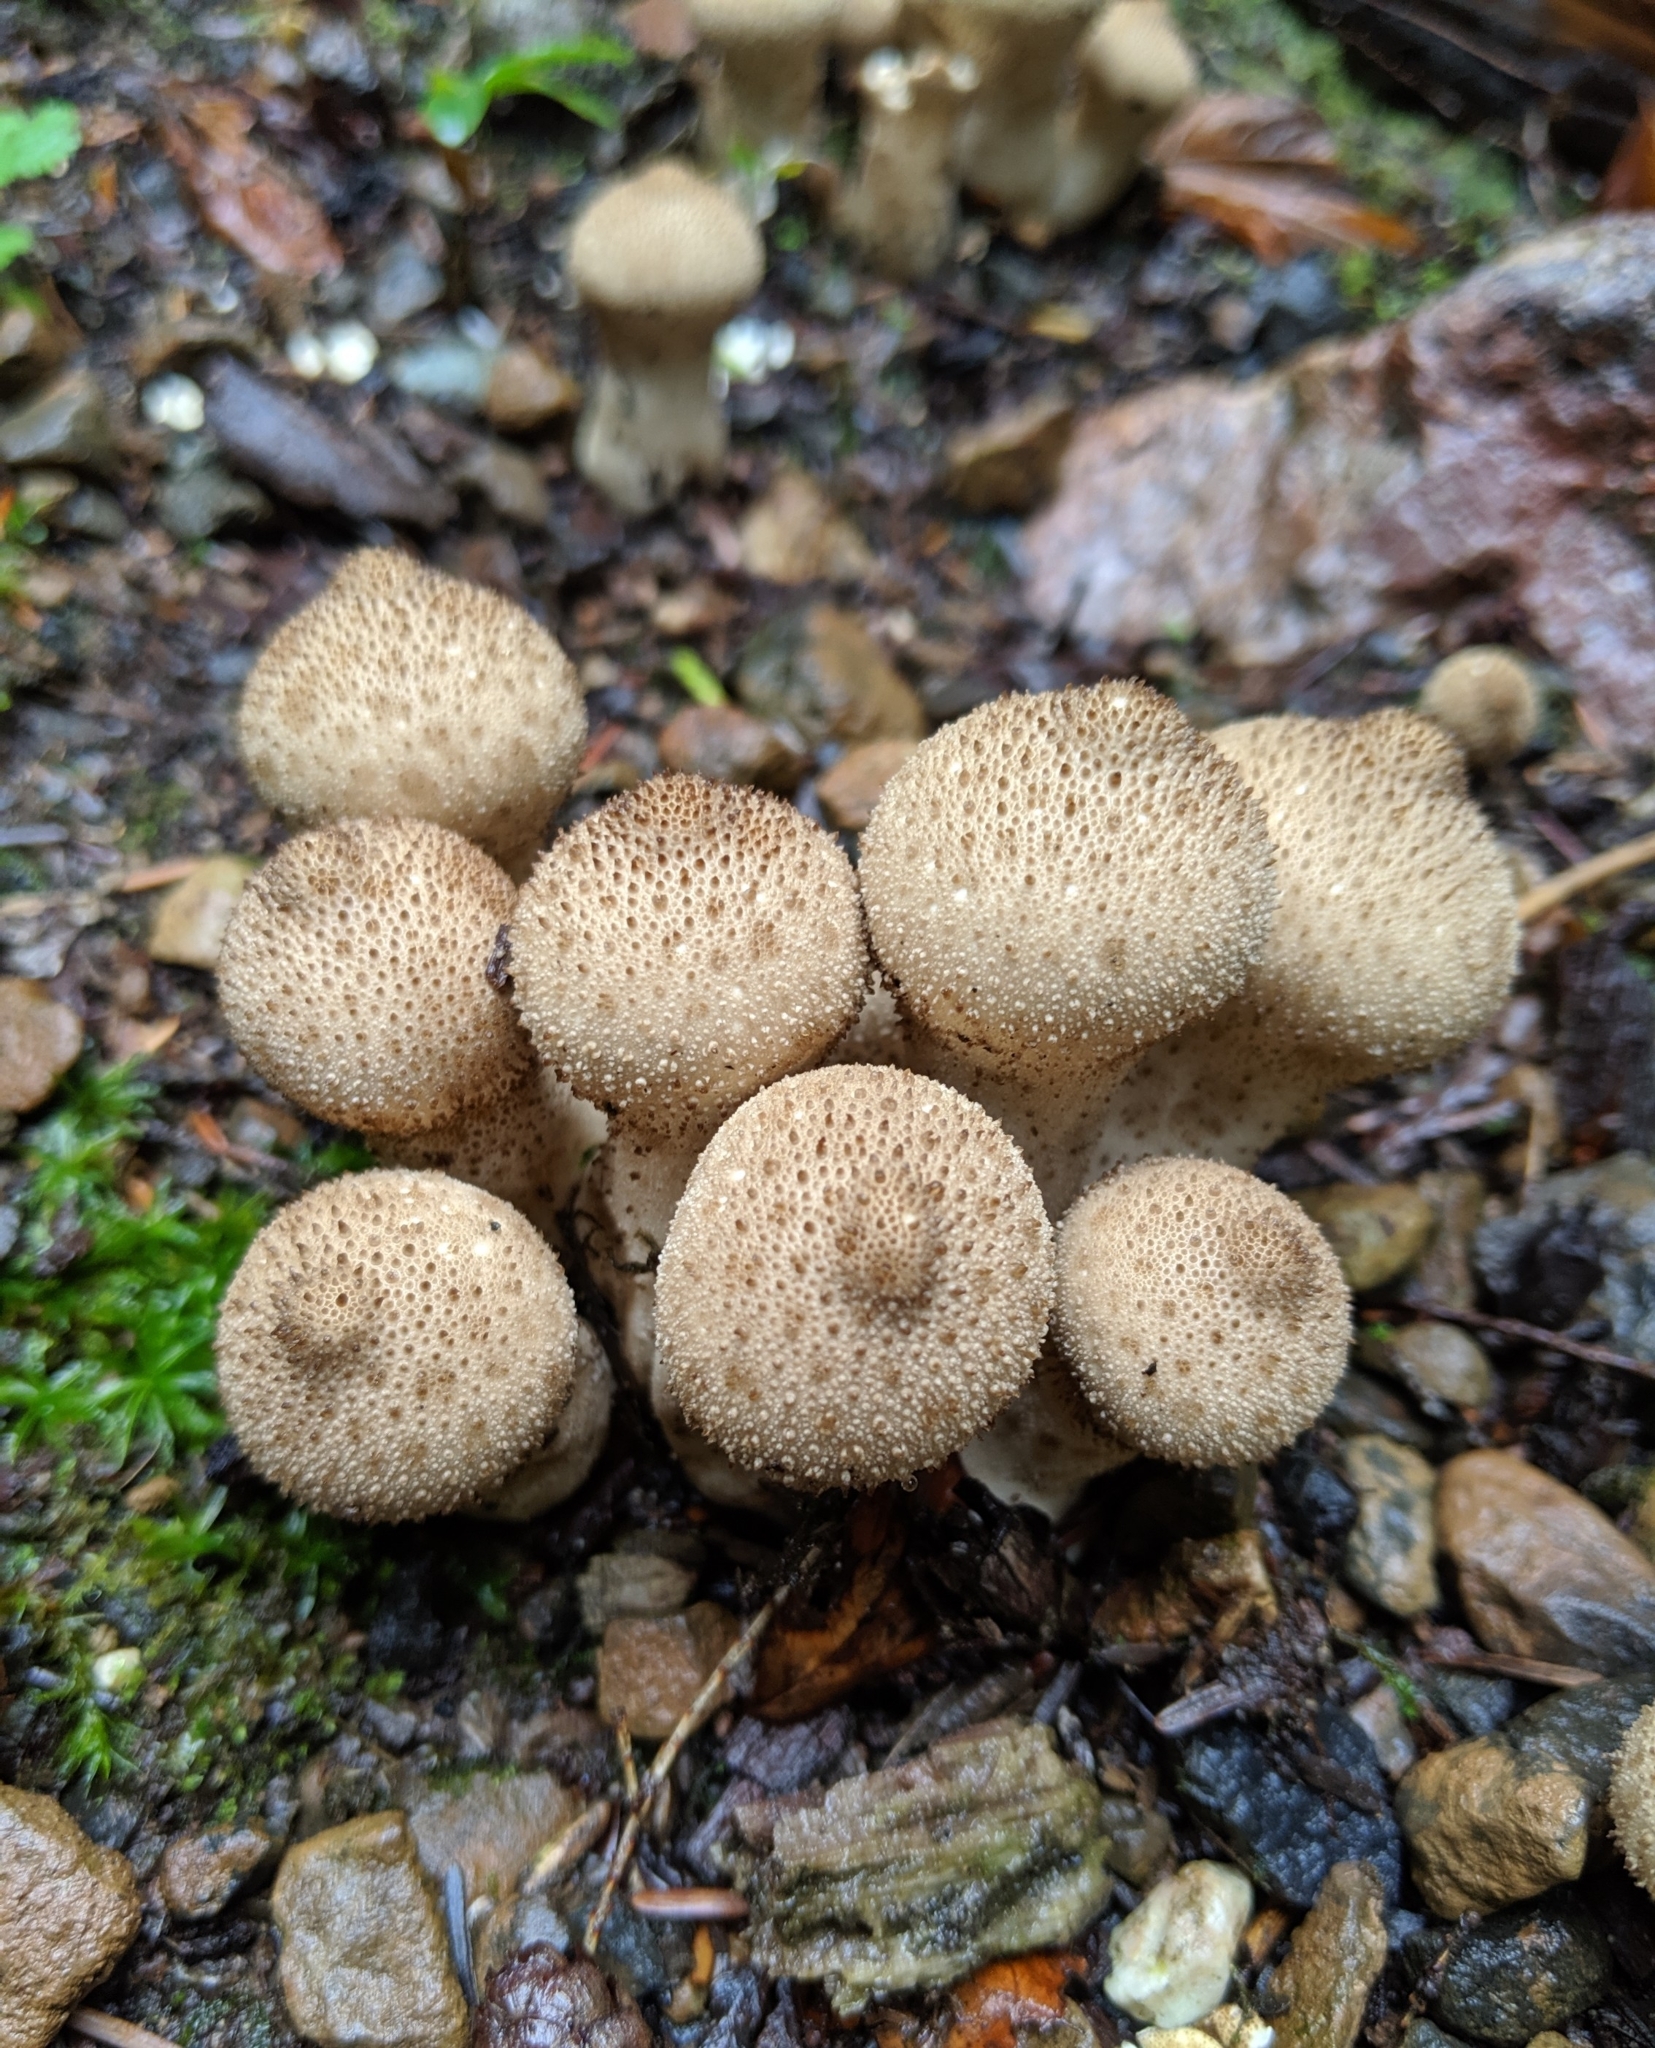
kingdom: Fungi
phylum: Basidiomycota
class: Agaricomycetes
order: Agaricales
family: Lycoperdaceae
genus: Lycoperdon
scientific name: Lycoperdon perlatum
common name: Common puffball
